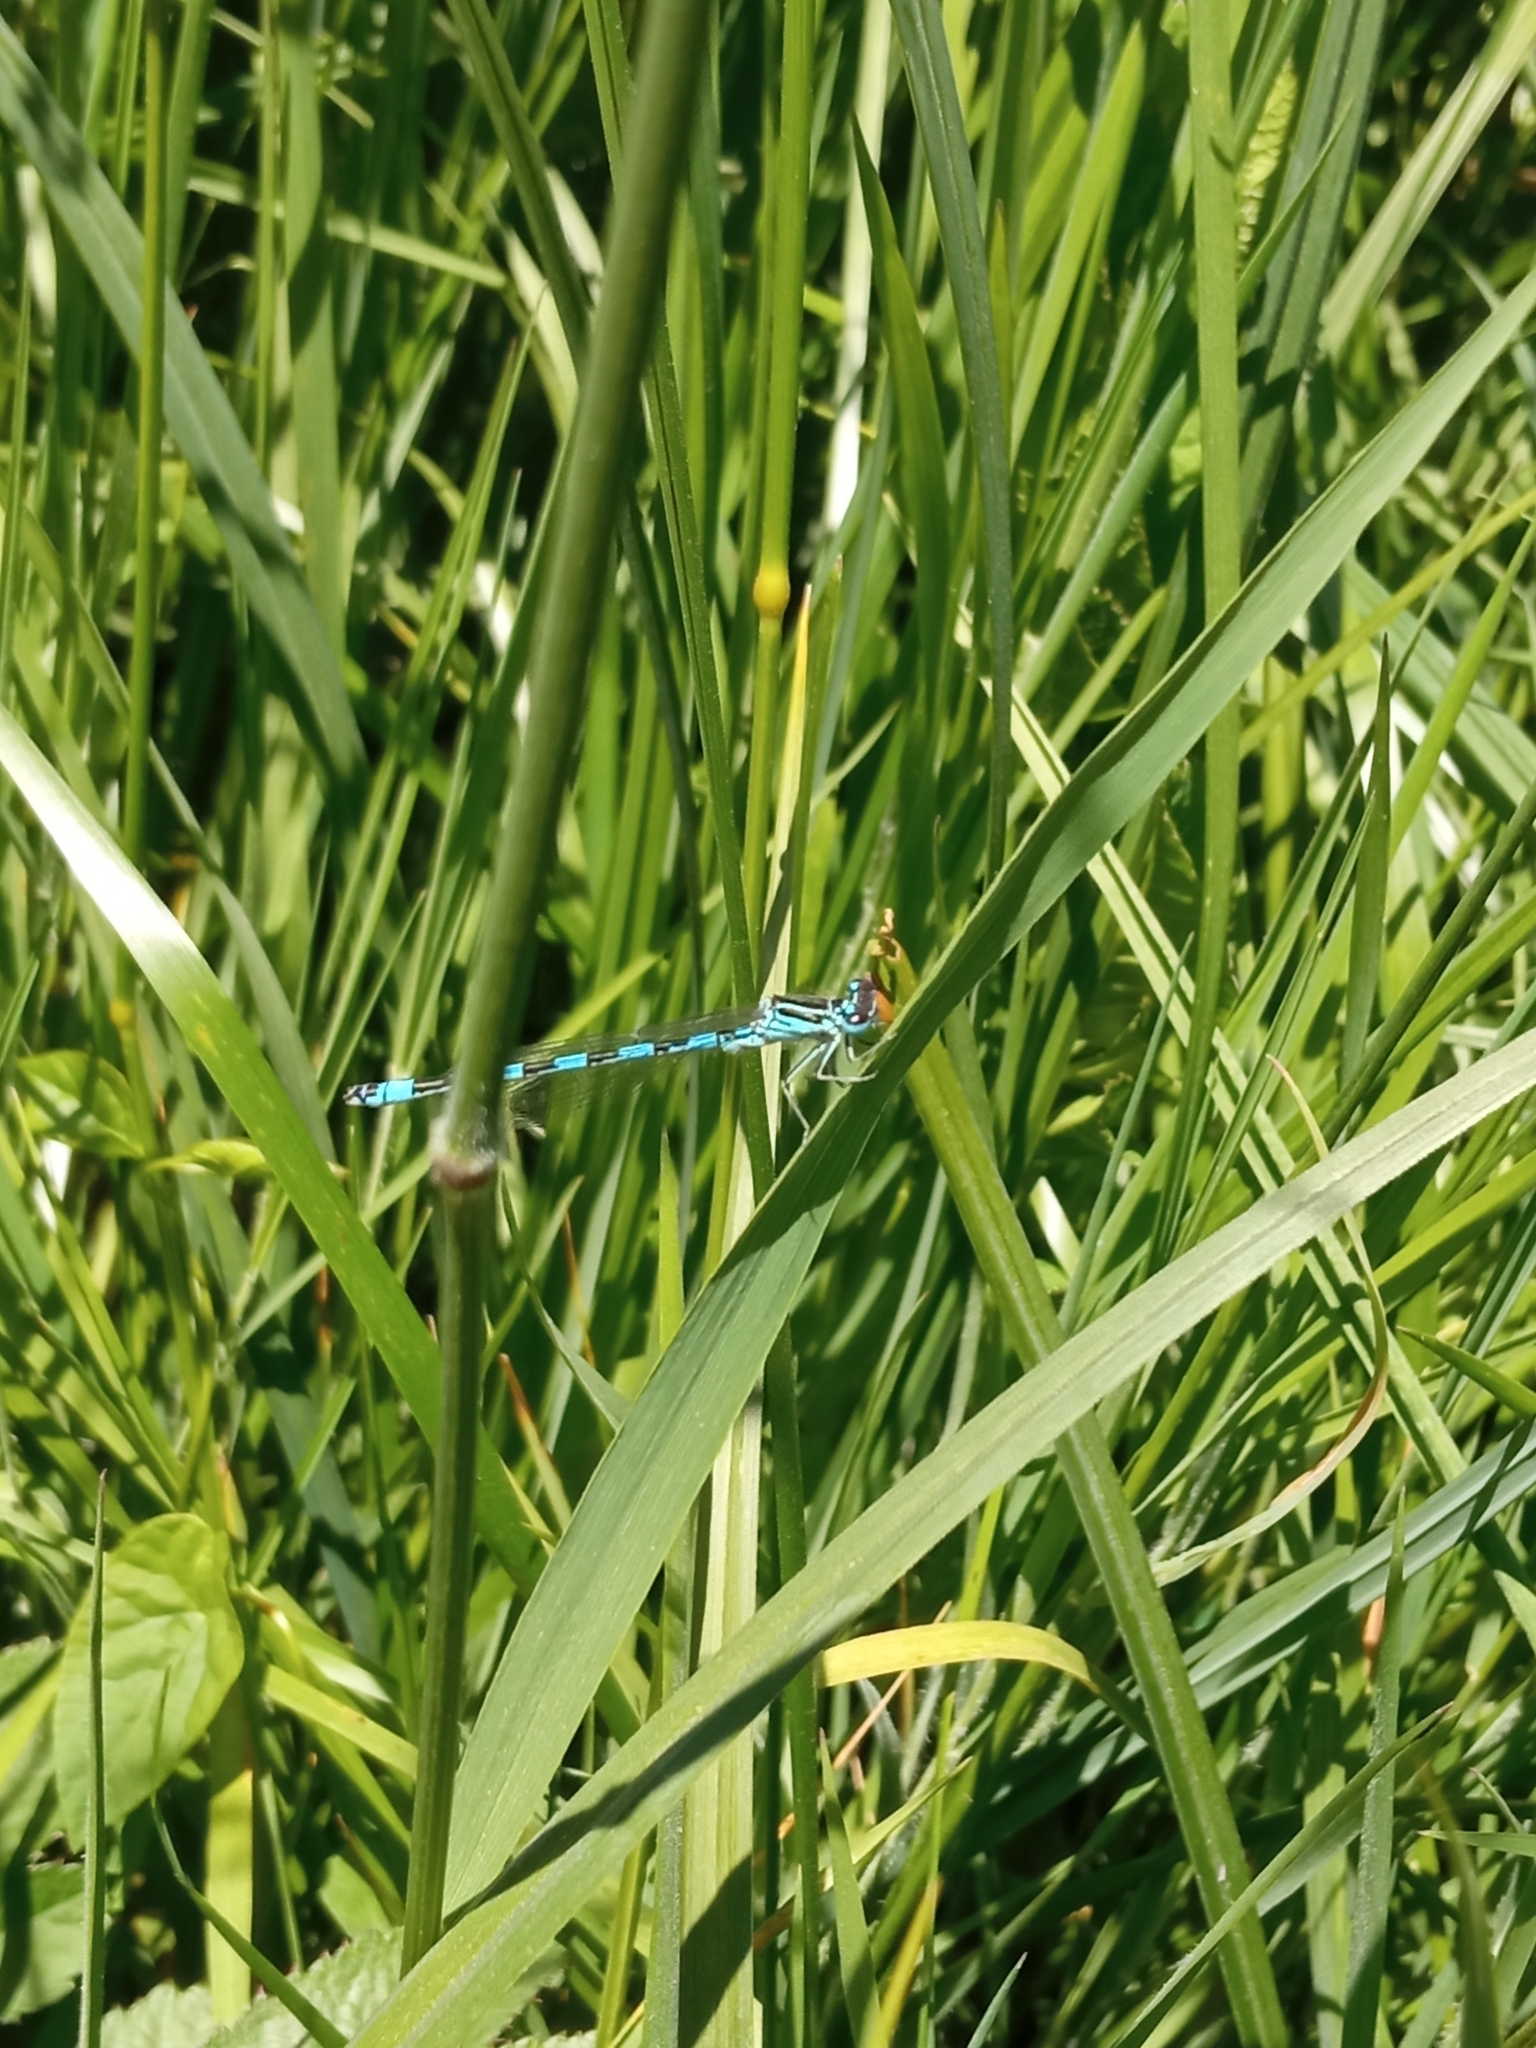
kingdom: Animalia
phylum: Arthropoda
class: Insecta
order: Odonata
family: Coenagrionidae
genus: Coenagrion
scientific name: Coenagrion mercuriale
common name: Southern damselfly
